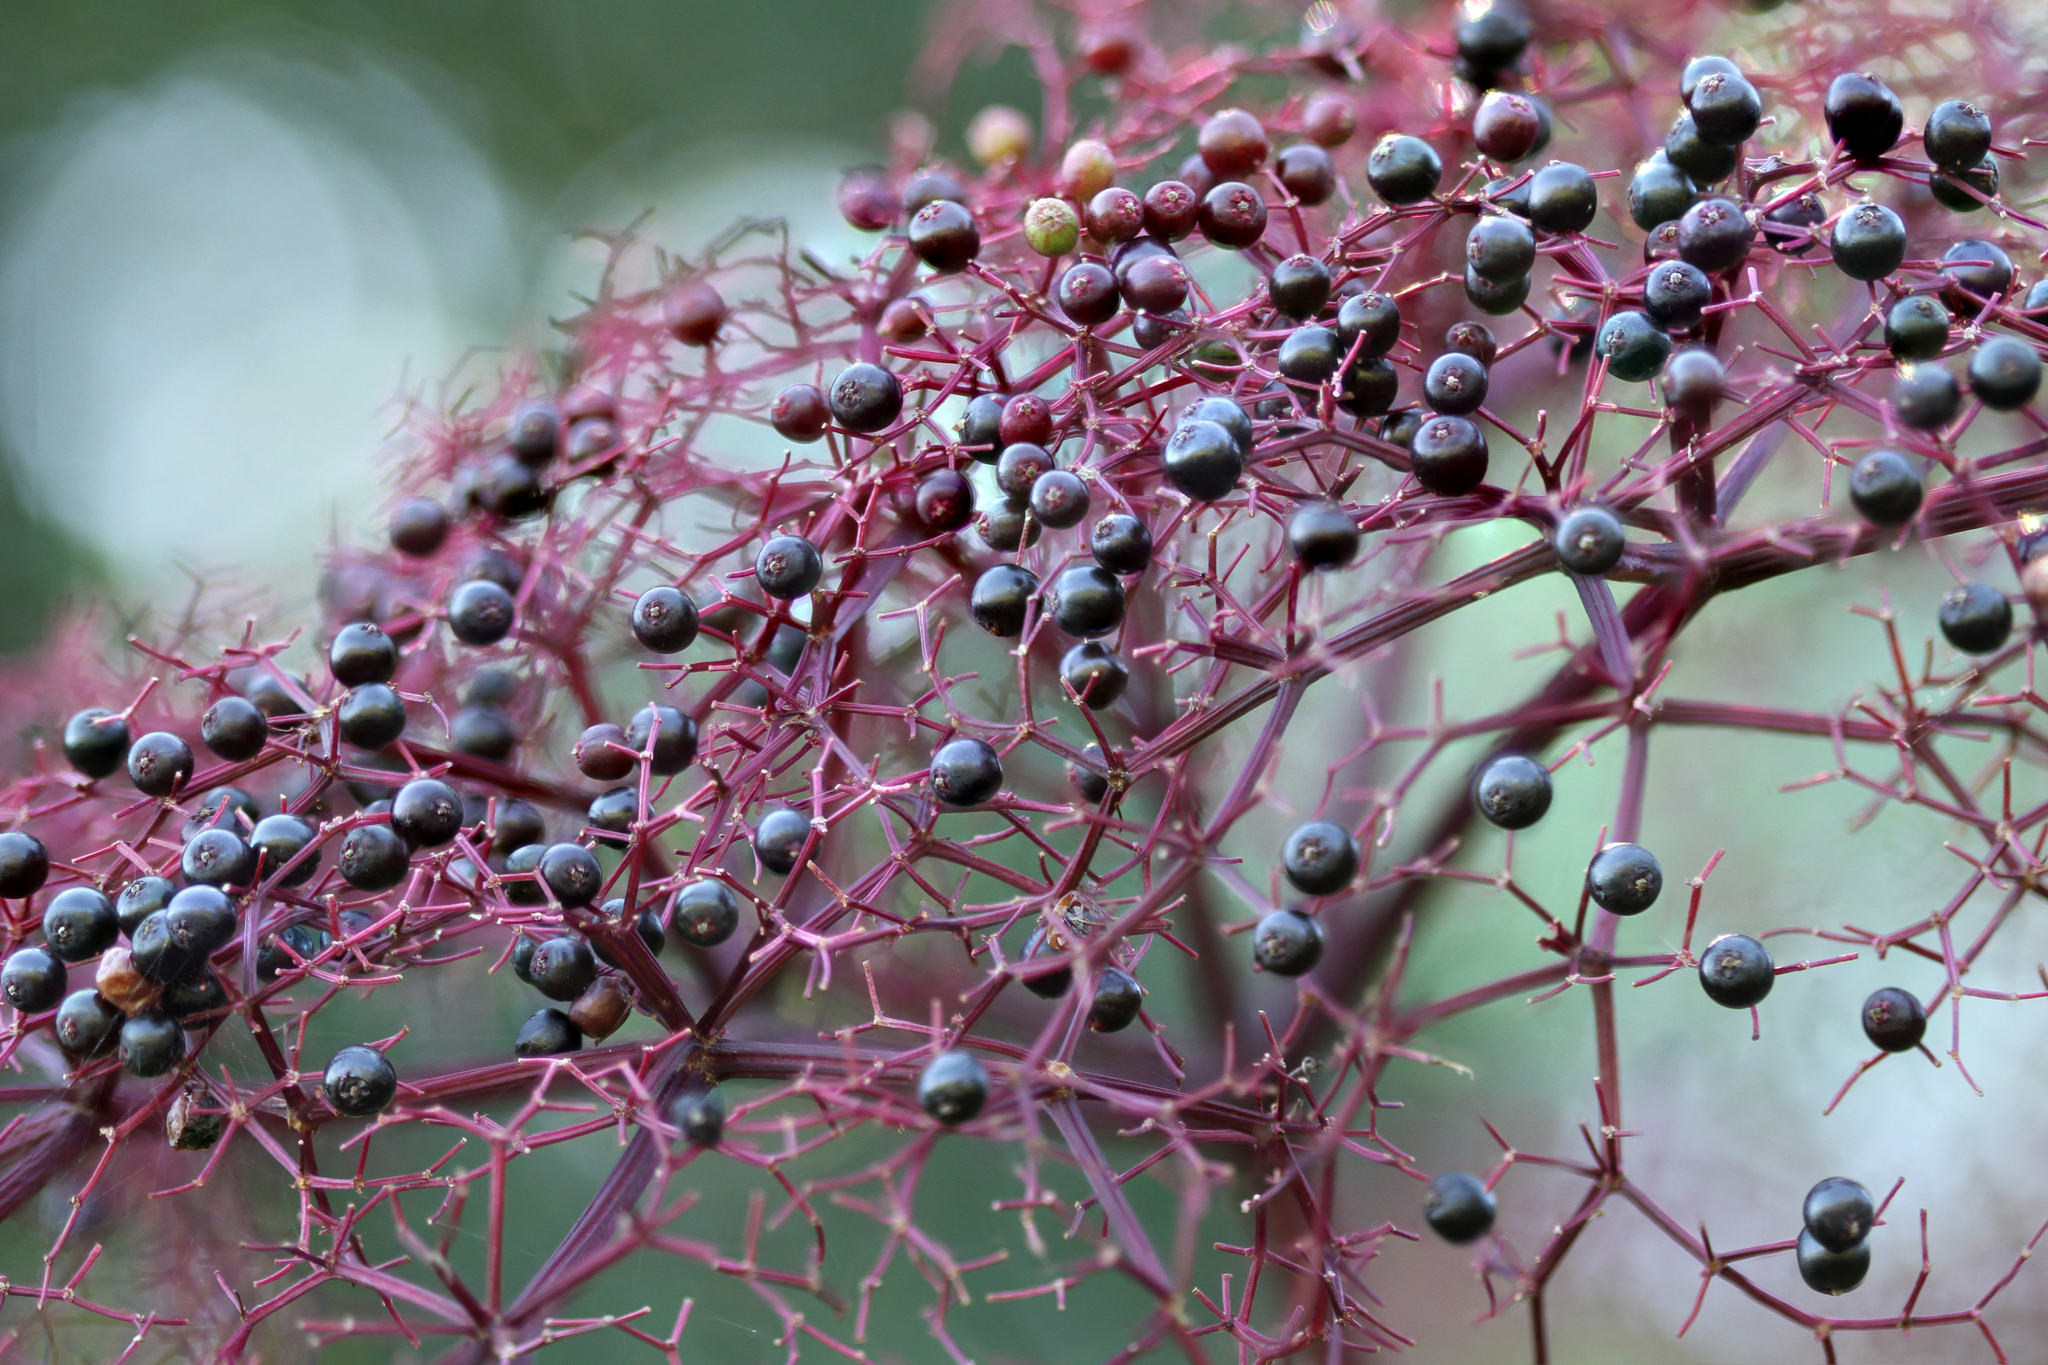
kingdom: Plantae
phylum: Tracheophyta
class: Magnoliopsida
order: Dipsacales
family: Viburnaceae
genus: Sambucus
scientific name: Sambucus canadensis
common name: American elder
